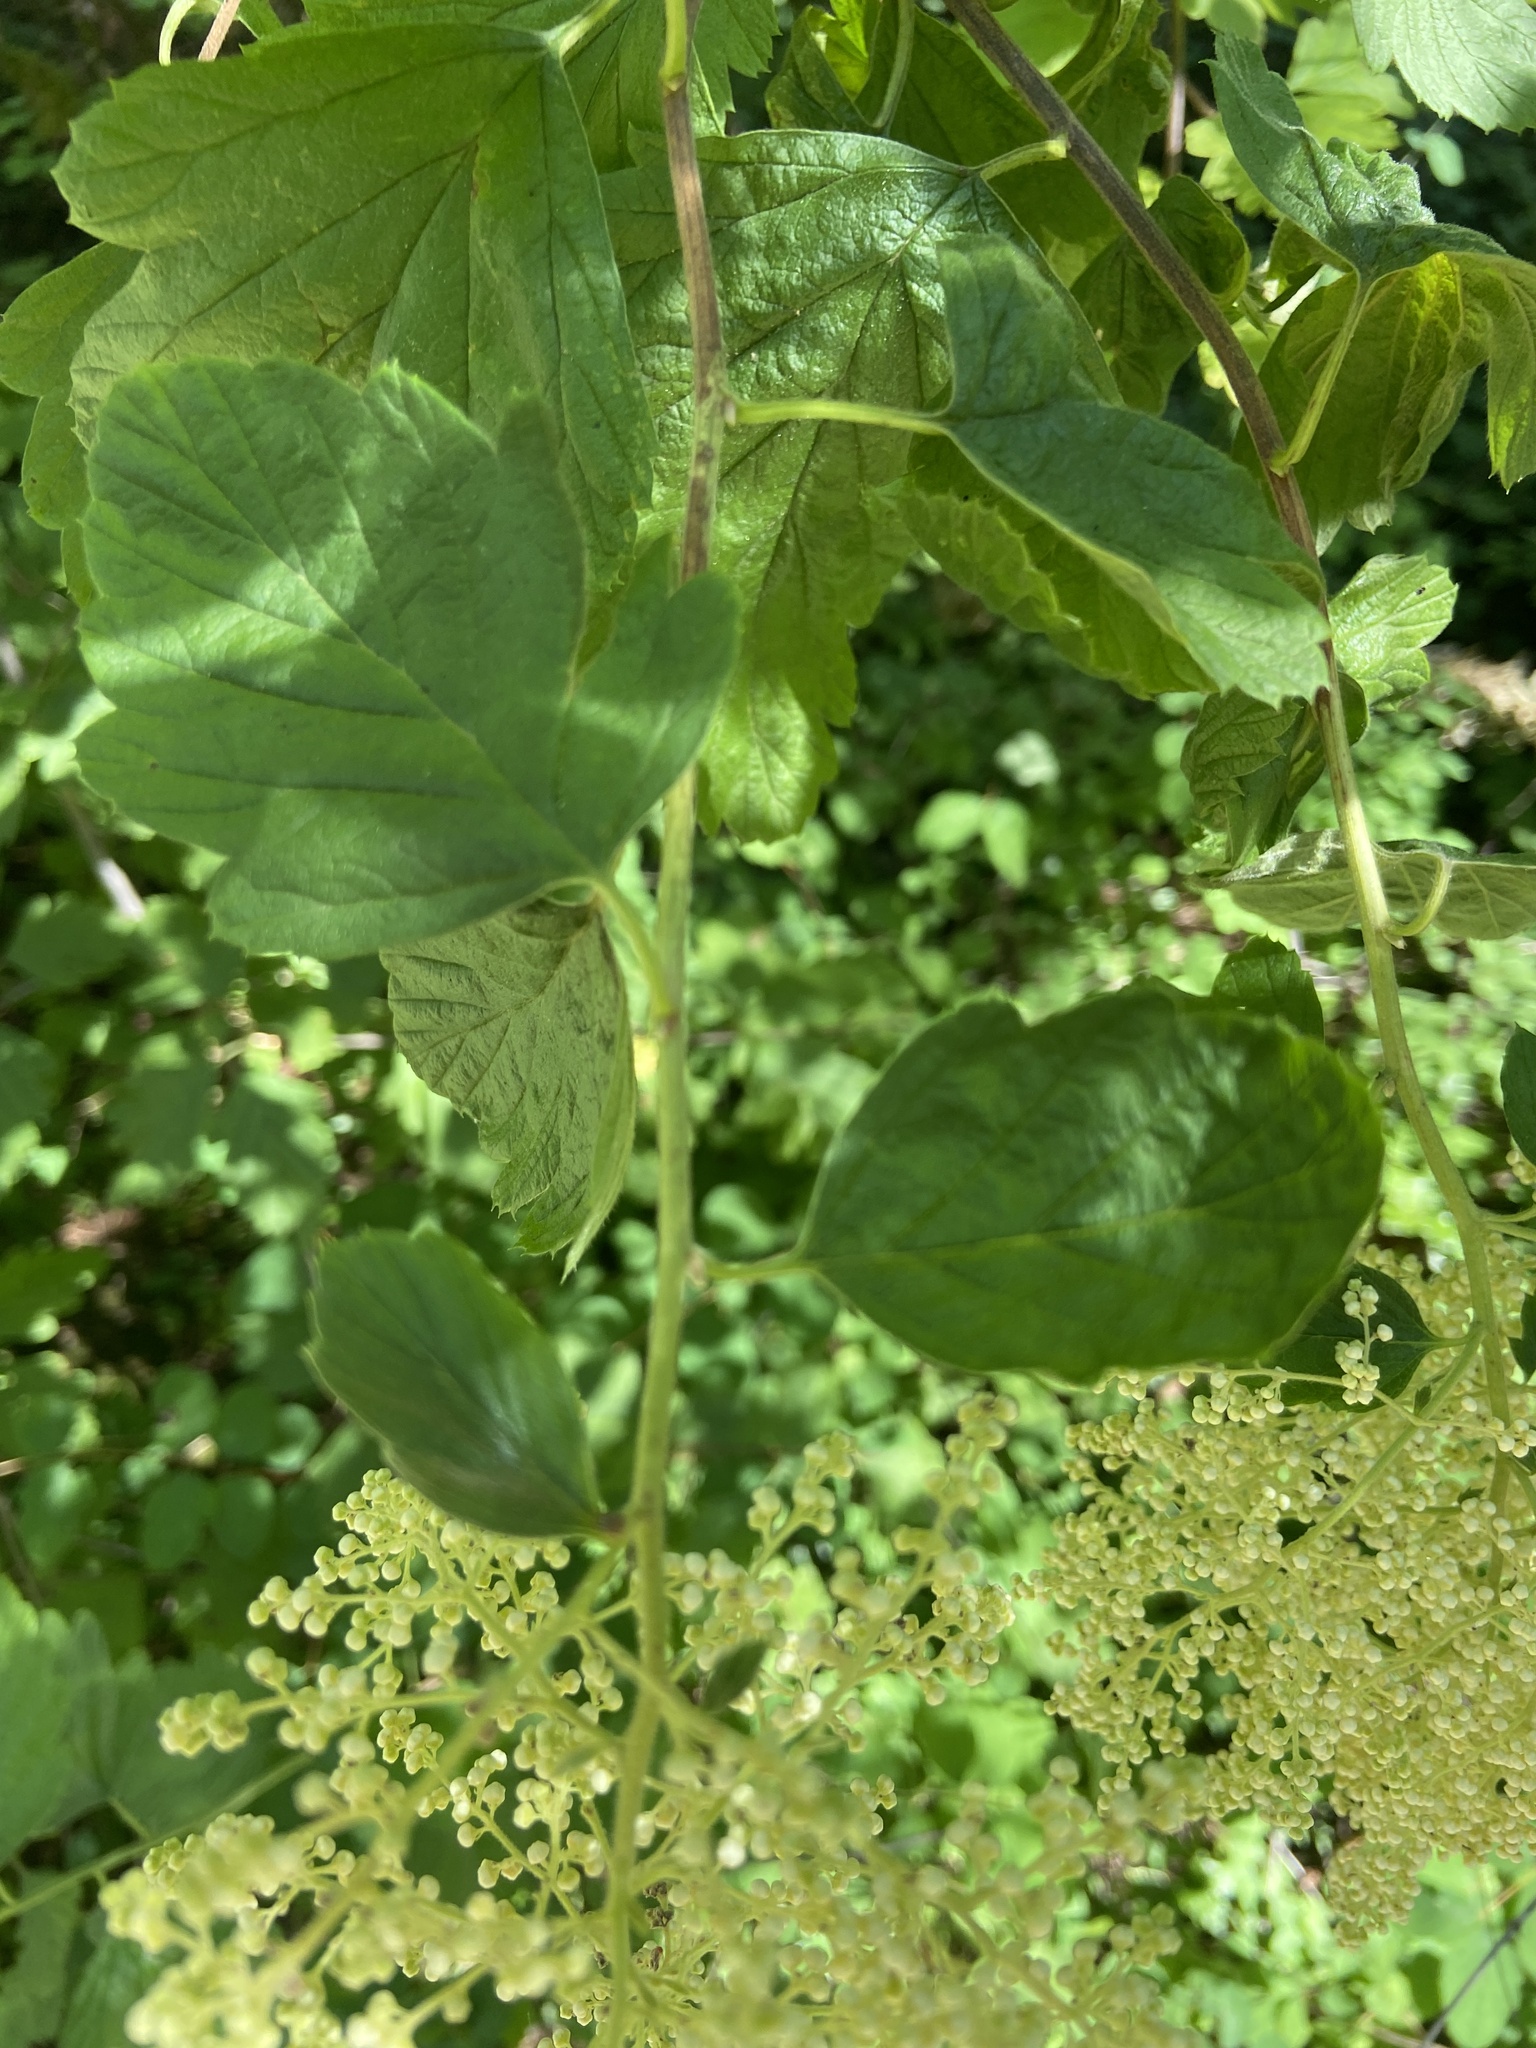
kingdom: Plantae
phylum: Tracheophyta
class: Magnoliopsida
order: Rosales
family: Rosaceae
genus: Holodiscus
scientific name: Holodiscus discolor
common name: Oceanspray
